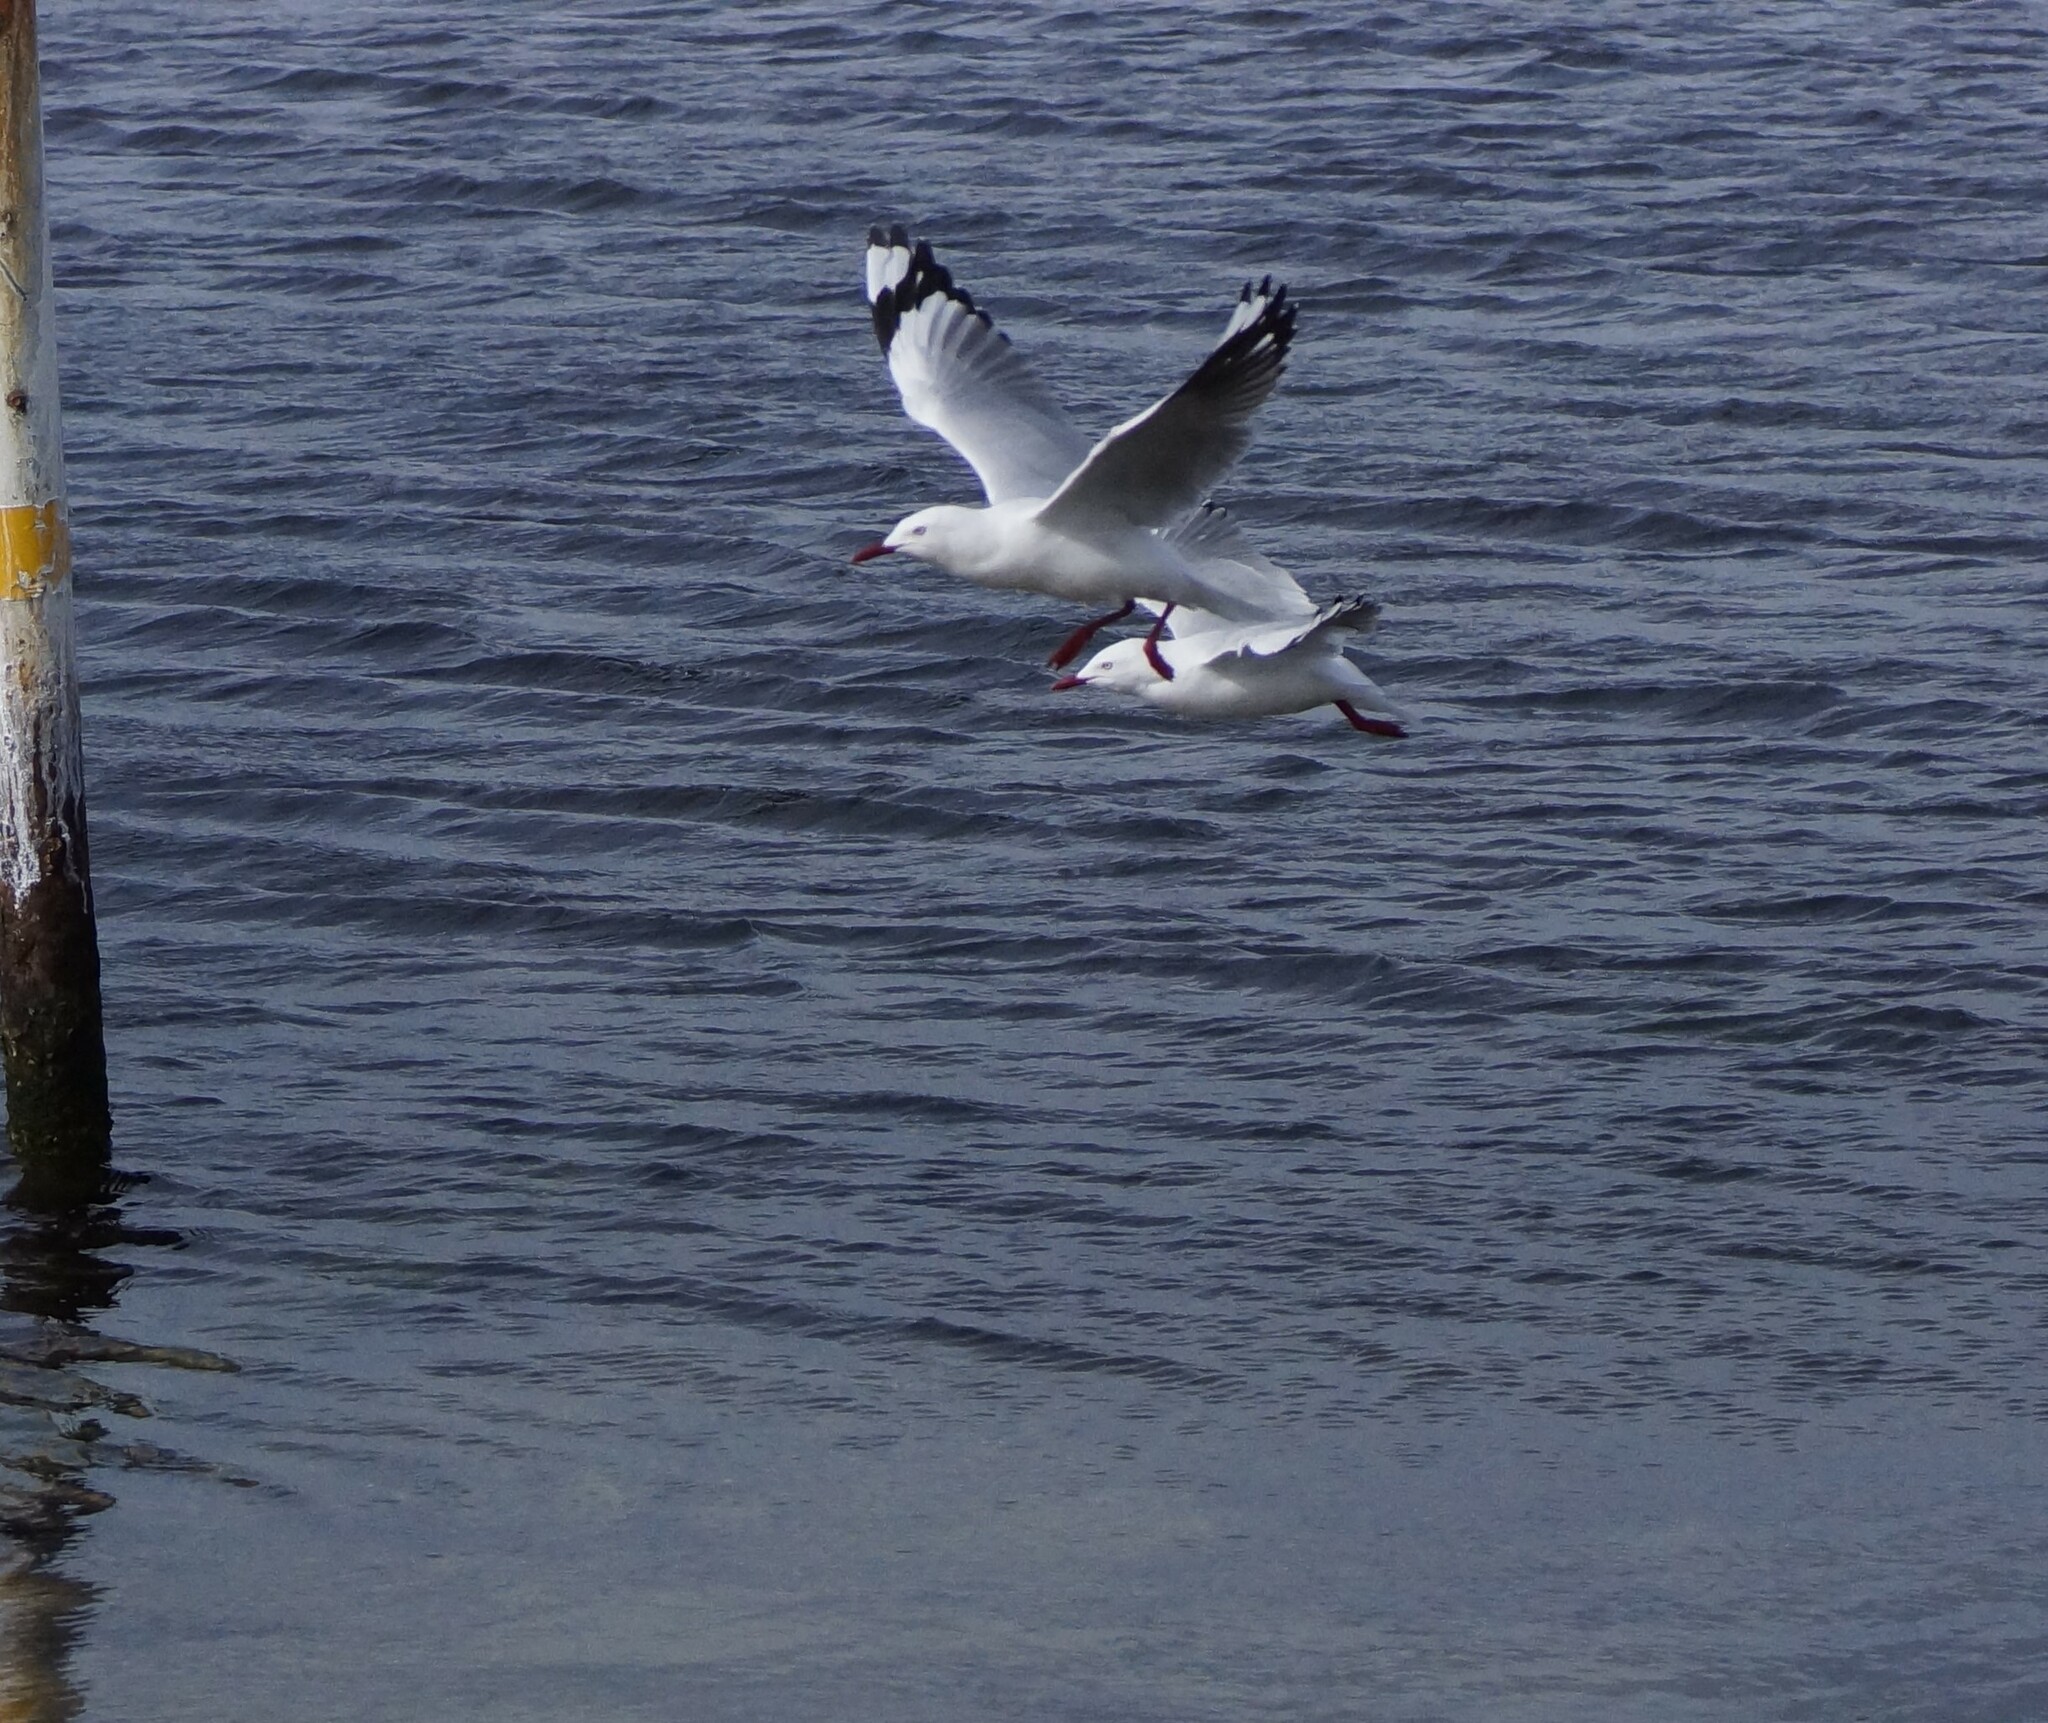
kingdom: Animalia
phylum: Chordata
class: Aves
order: Charadriiformes
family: Laridae
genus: Chroicocephalus
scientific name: Chroicocephalus novaehollandiae
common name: Silver gull
